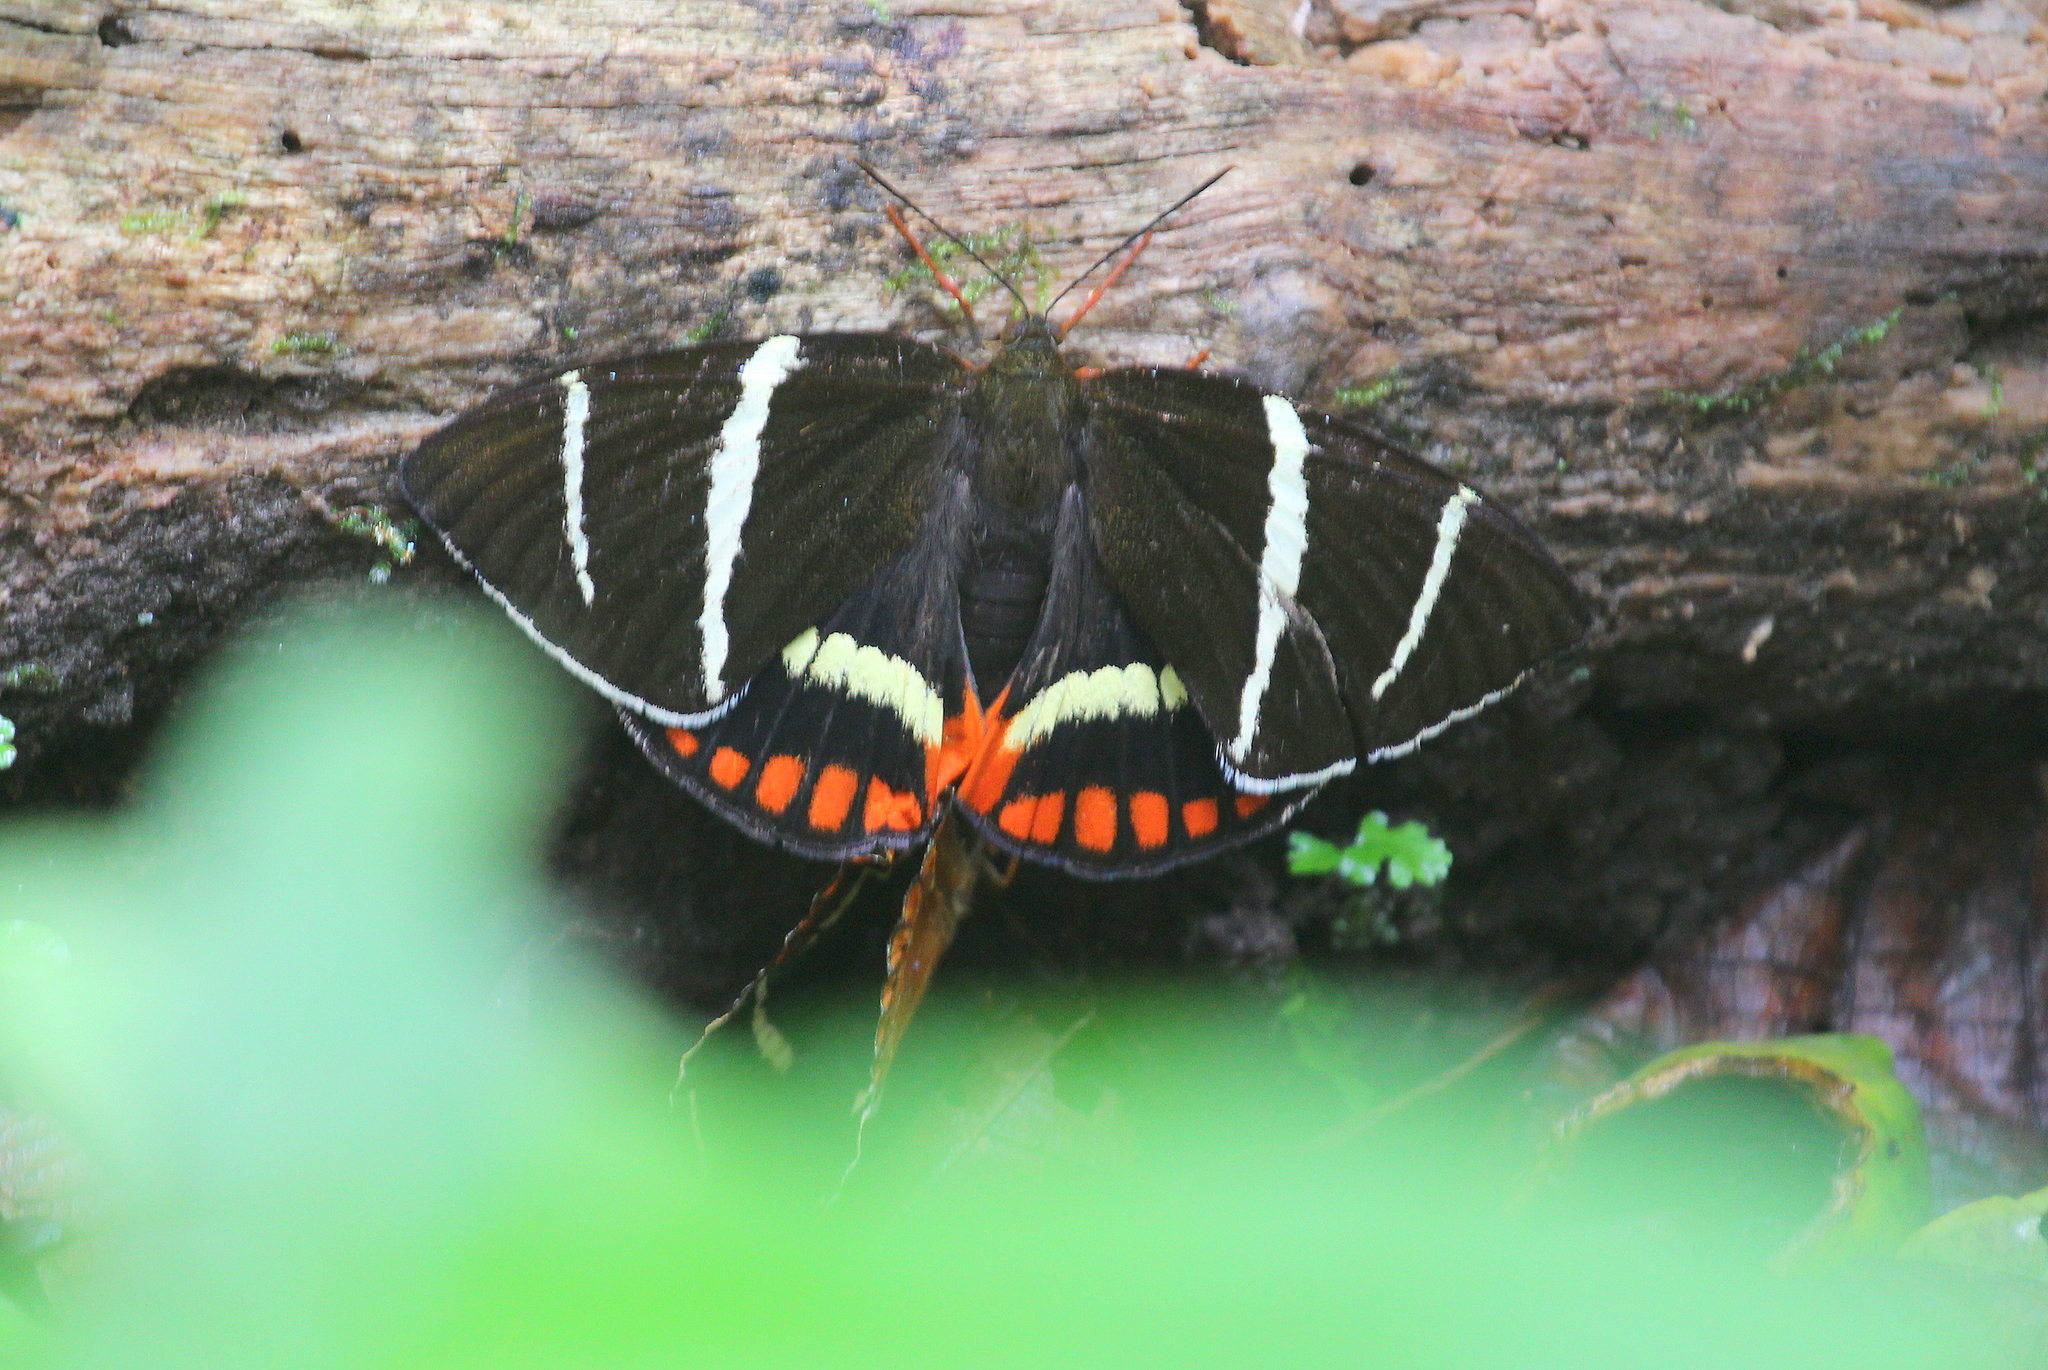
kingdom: Animalia
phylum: Arthropoda
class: Insecta
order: Lepidoptera
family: Castniidae
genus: Telchin
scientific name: Telchin
